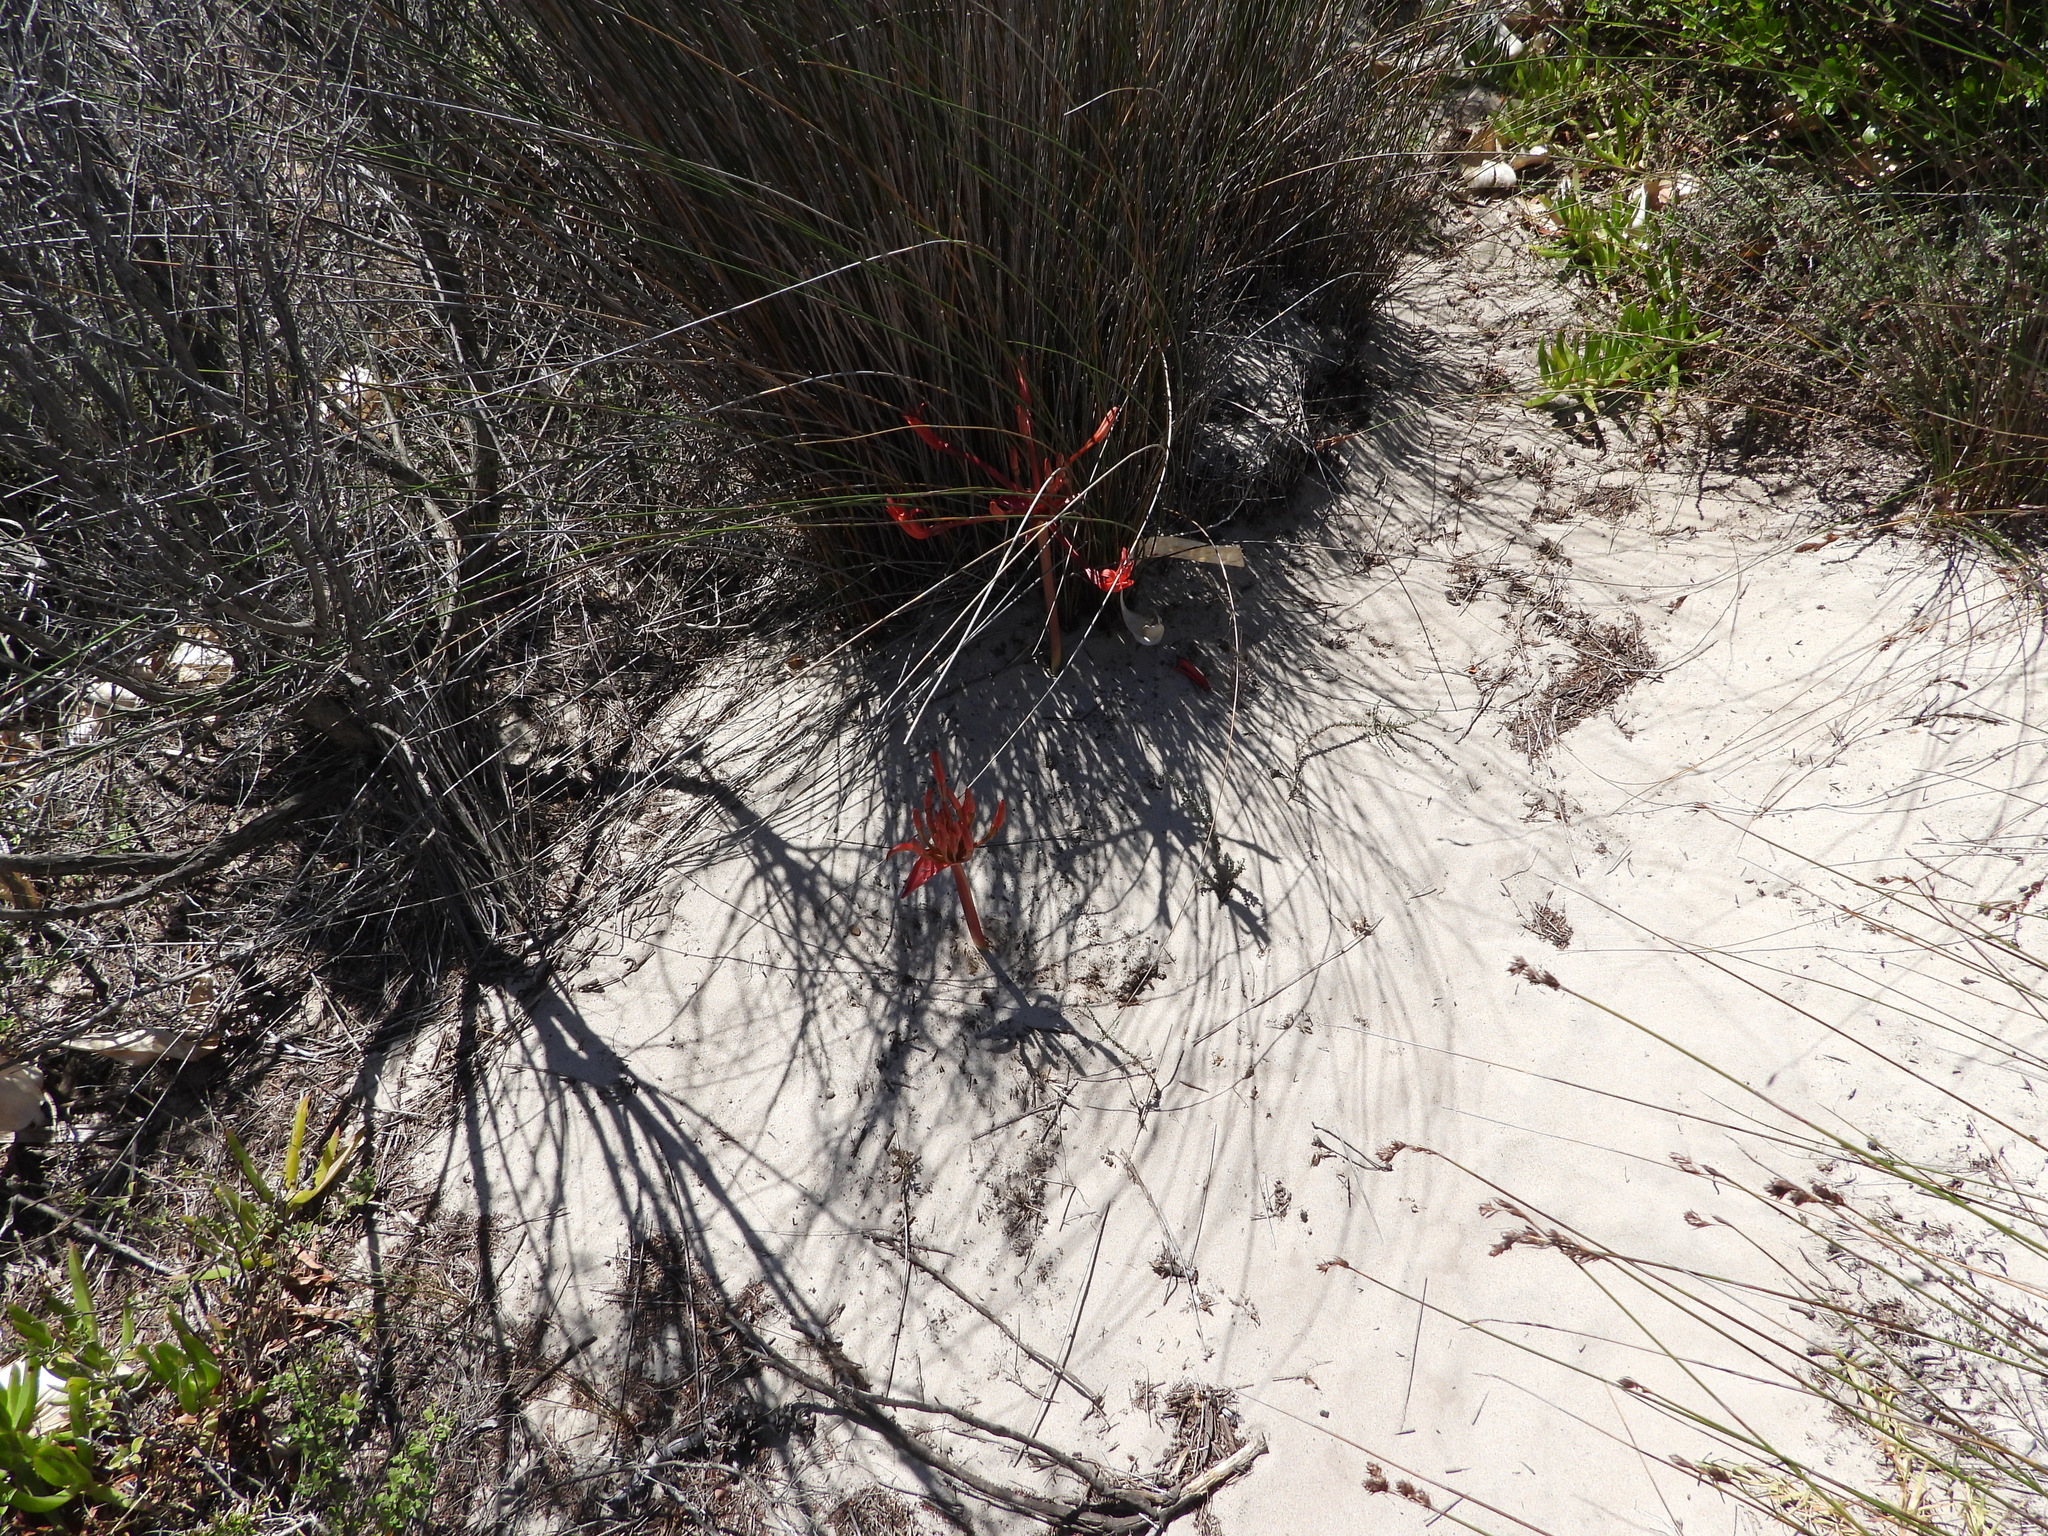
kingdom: Plantae
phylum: Tracheophyta
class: Liliopsida
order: Asparagales
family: Amaryllidaceae
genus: Brunsvigia
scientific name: Brunsvigia orientalis
